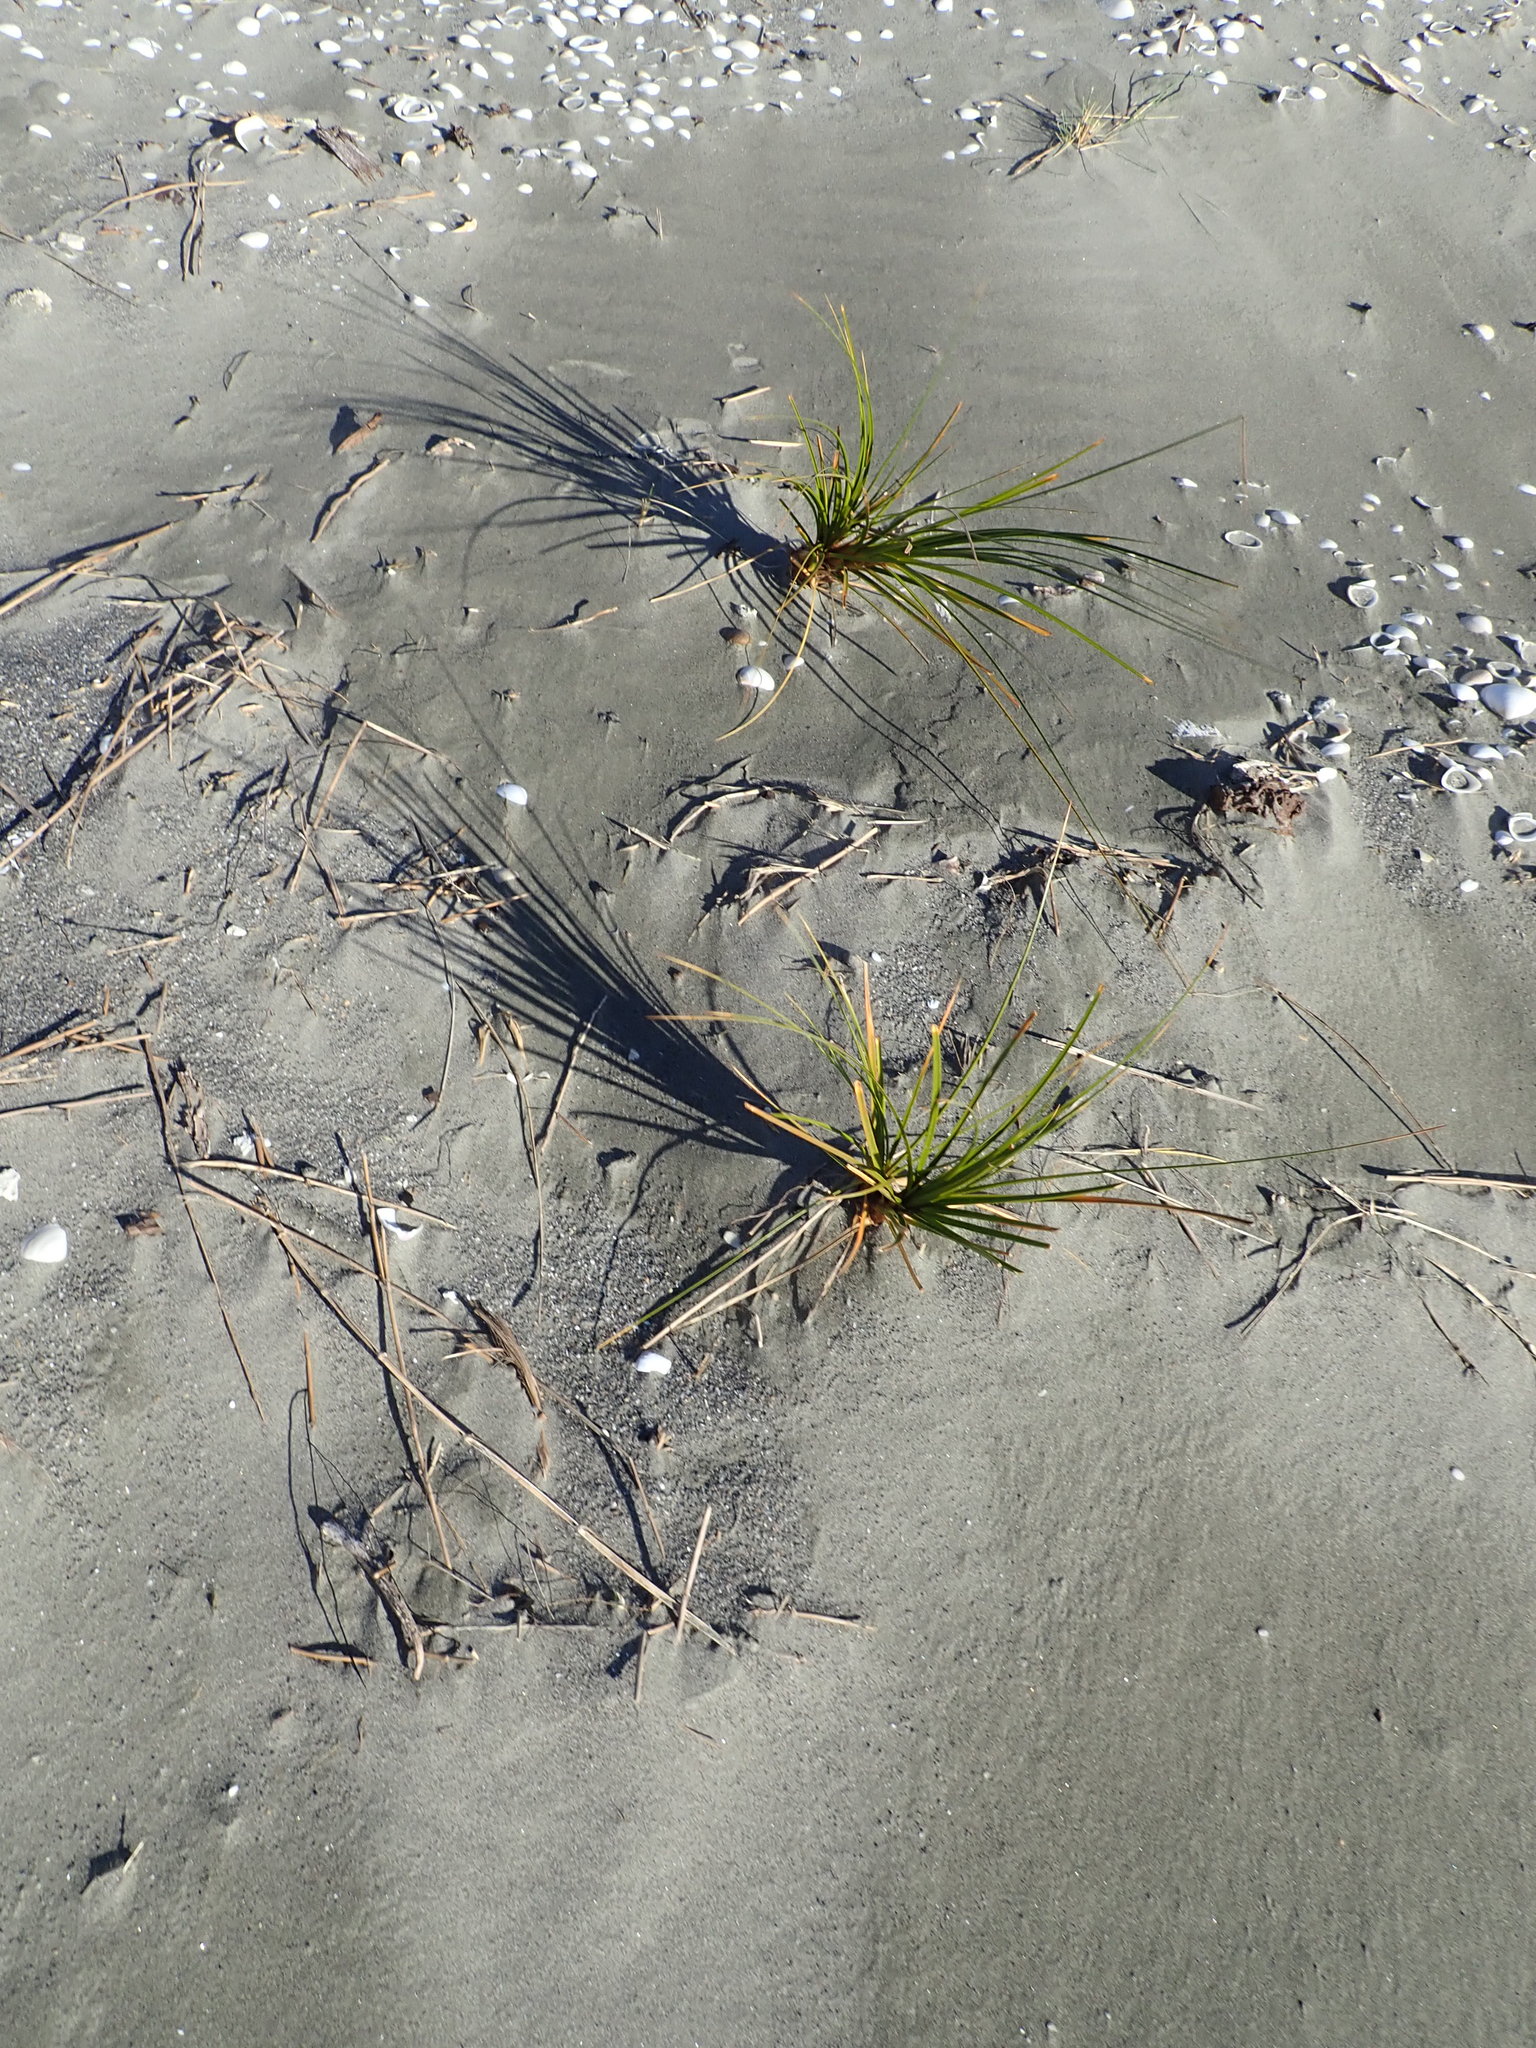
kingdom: Plantae
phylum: Tracheophyta
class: Liliopsida
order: Poales
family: Cyperaceae
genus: Ficinia
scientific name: Ficinia spiralis
